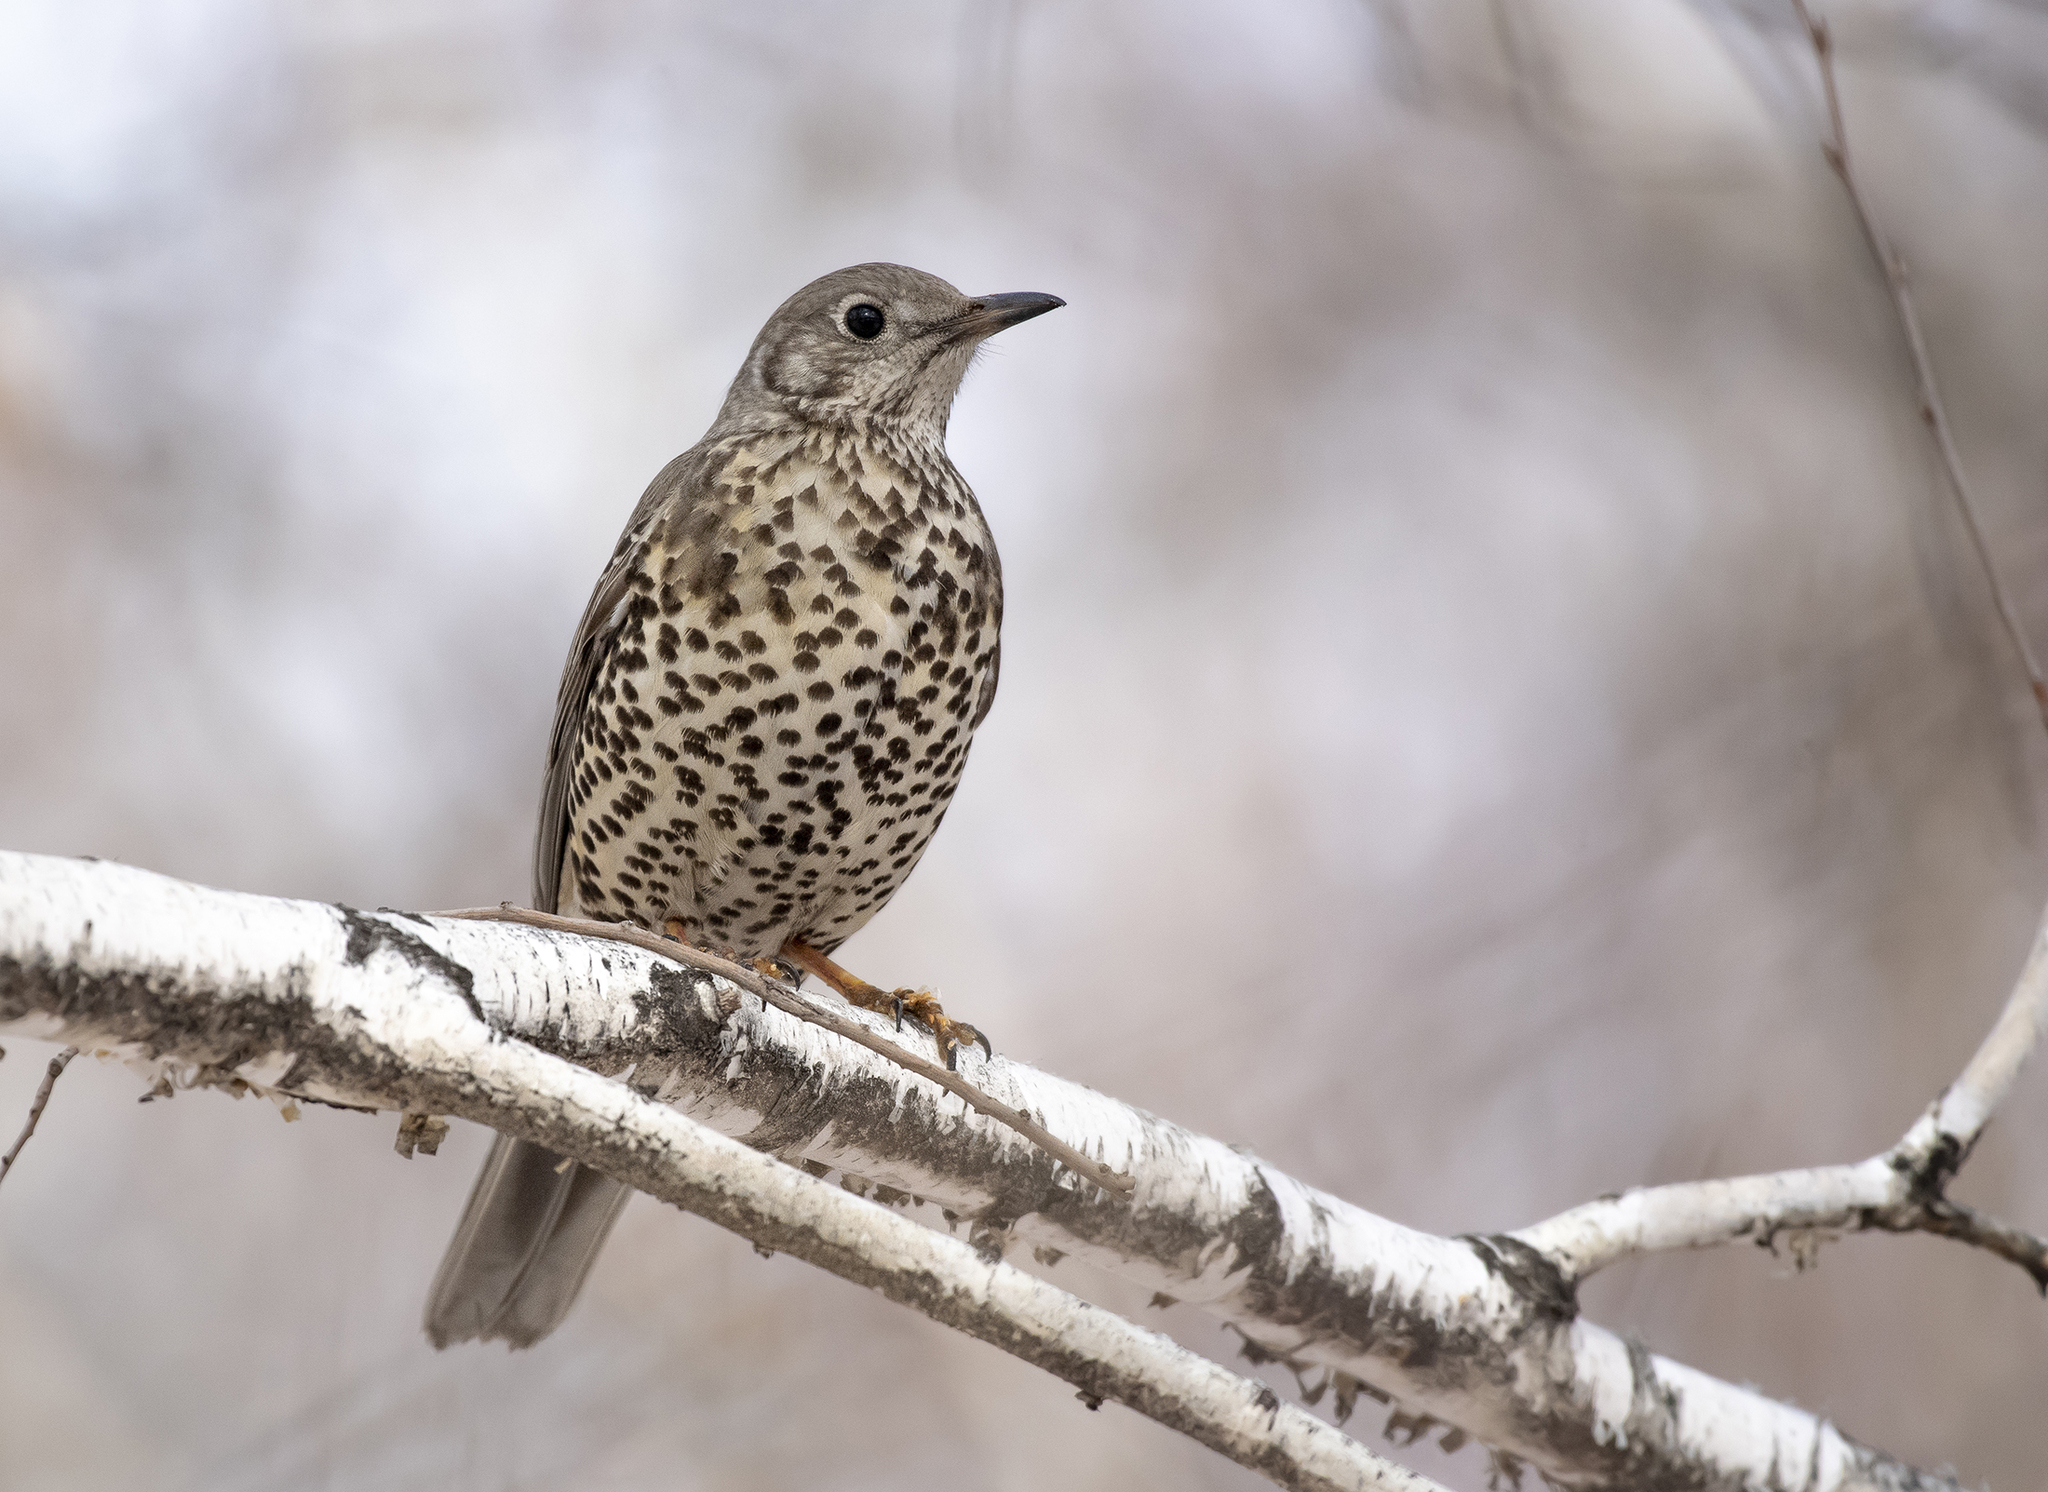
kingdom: Animalia
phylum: Chordata
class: Aves
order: Passeriformes
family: Turdidae
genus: Turdus
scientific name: Turdus viscivorus
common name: Mistle thrush
